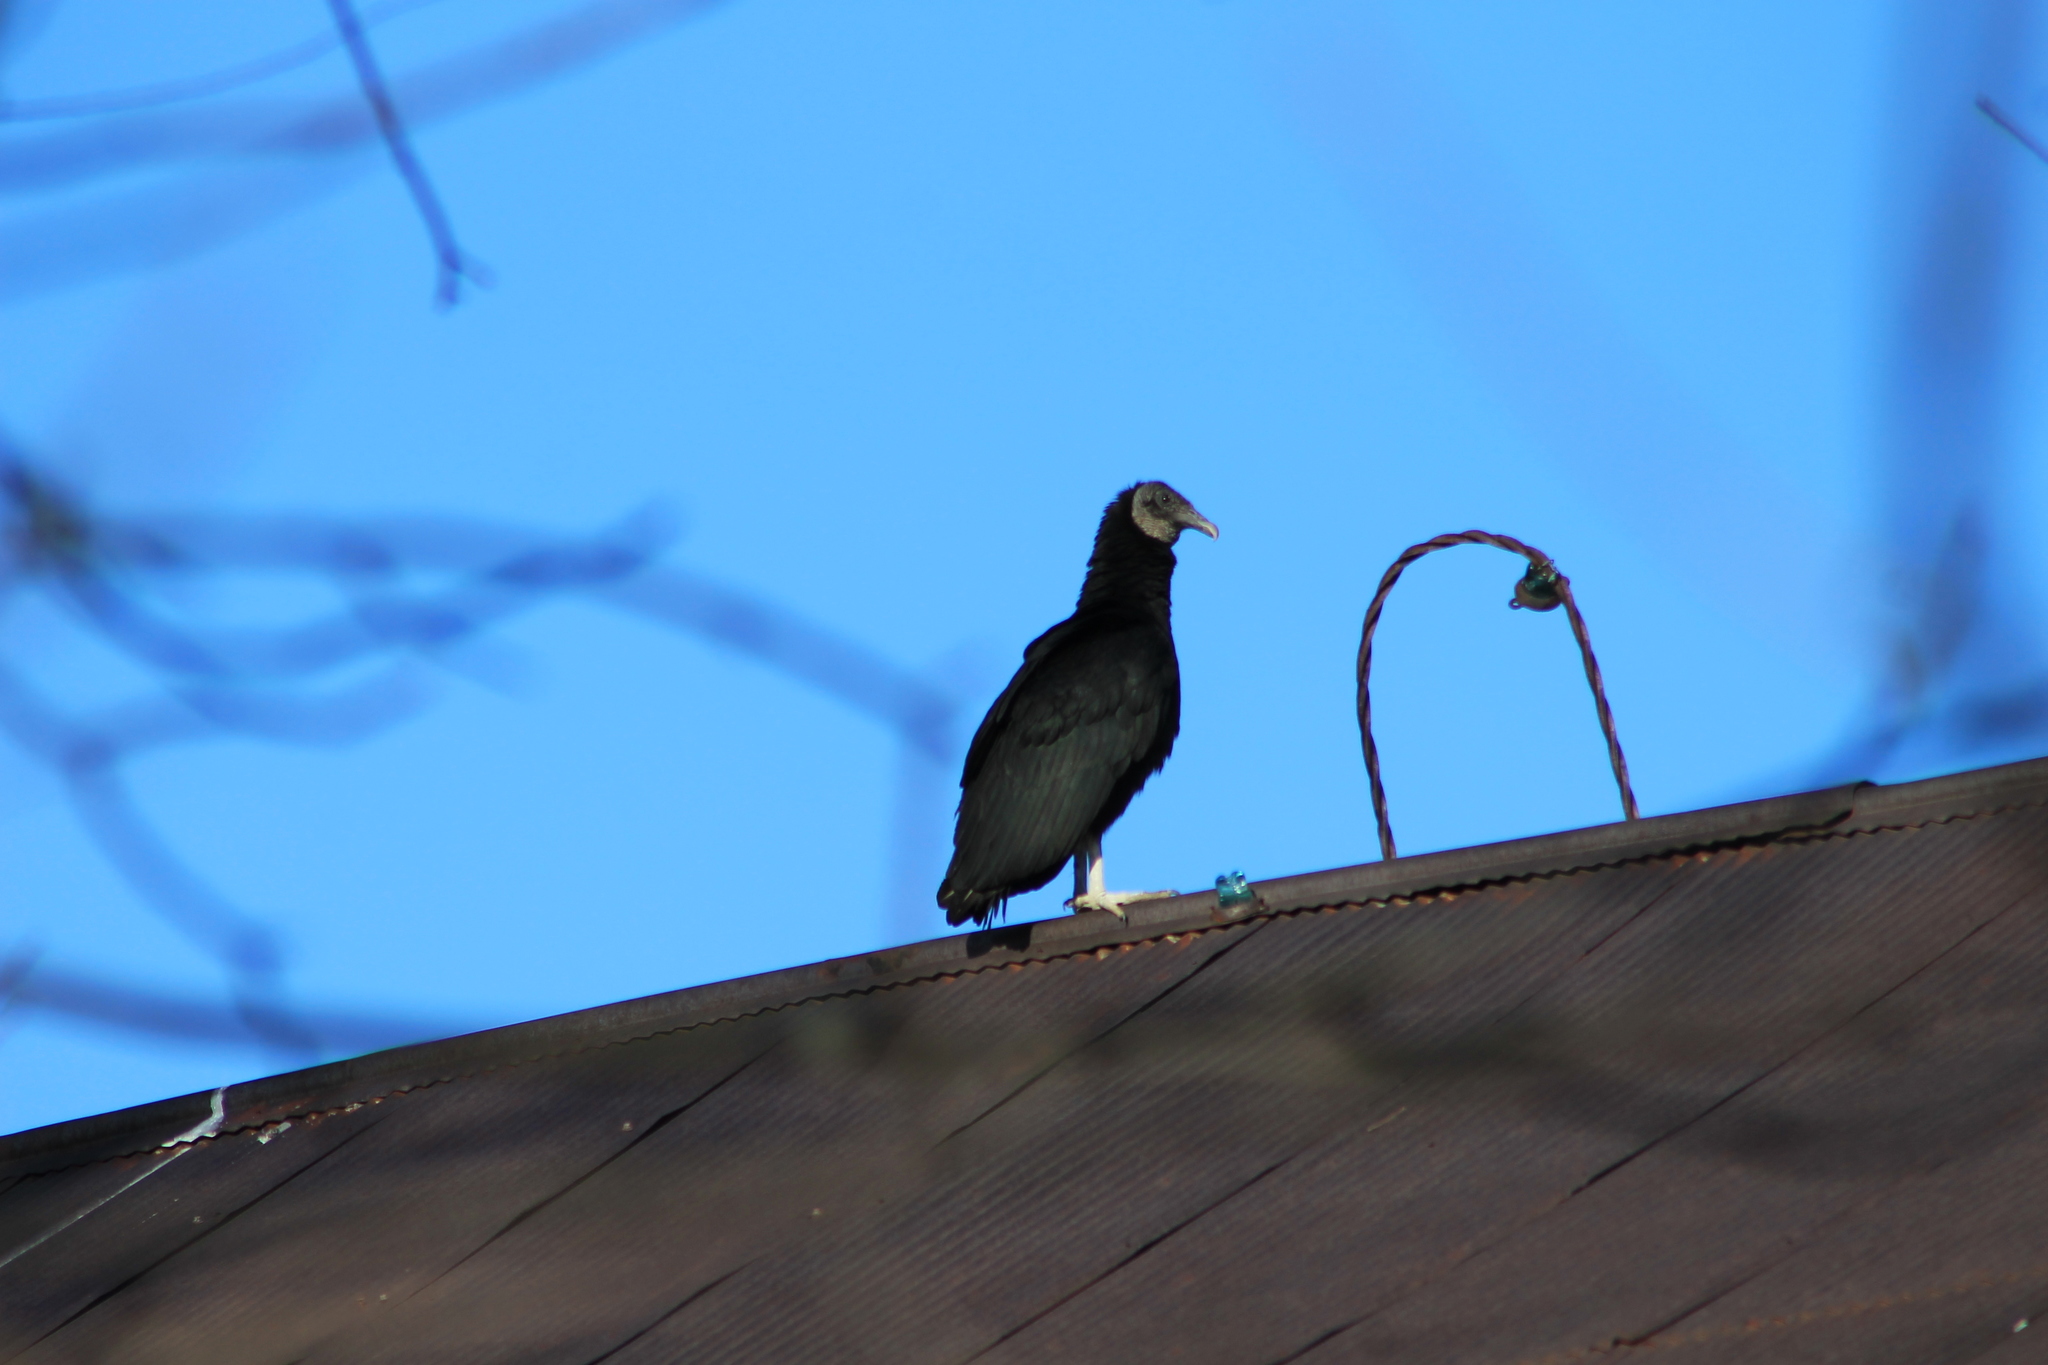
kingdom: Animalia
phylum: Chordata
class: Aves
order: Accipitriformes
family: Cathartidae
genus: Coragyps
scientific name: Coragyps atratus
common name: Black vulture
